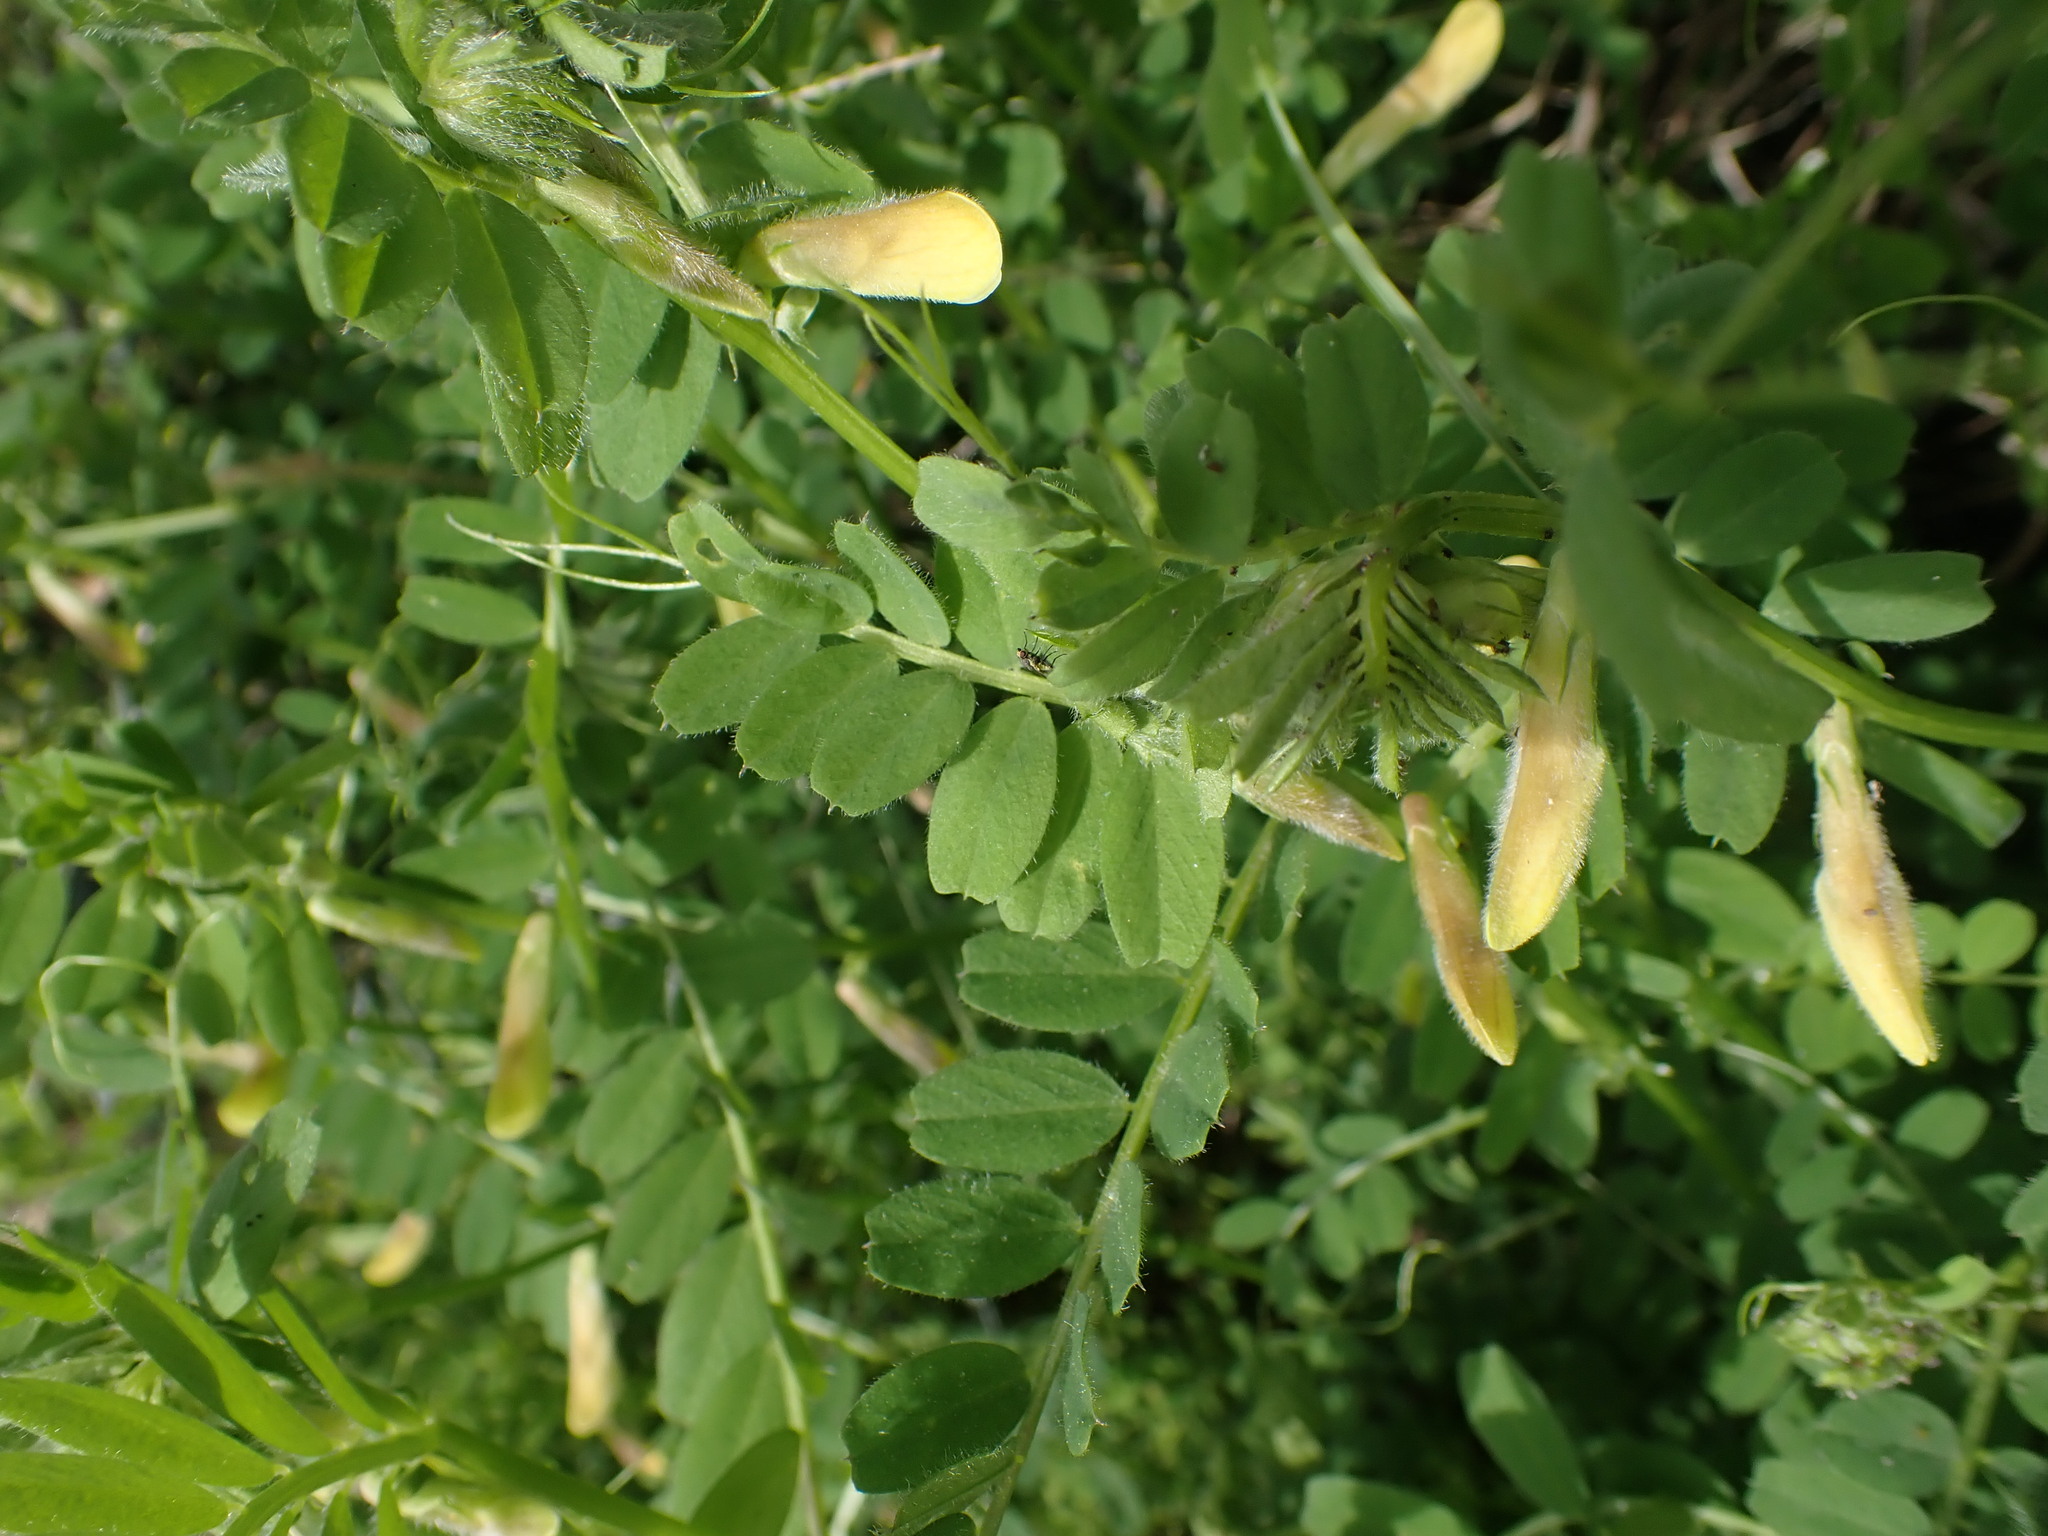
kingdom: Plantae
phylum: Tracheophyta
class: Magnoliopsida
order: Fabales
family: Fabaceae
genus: Vicia
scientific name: Vicia hybrida
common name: Hairy yellow vetch
